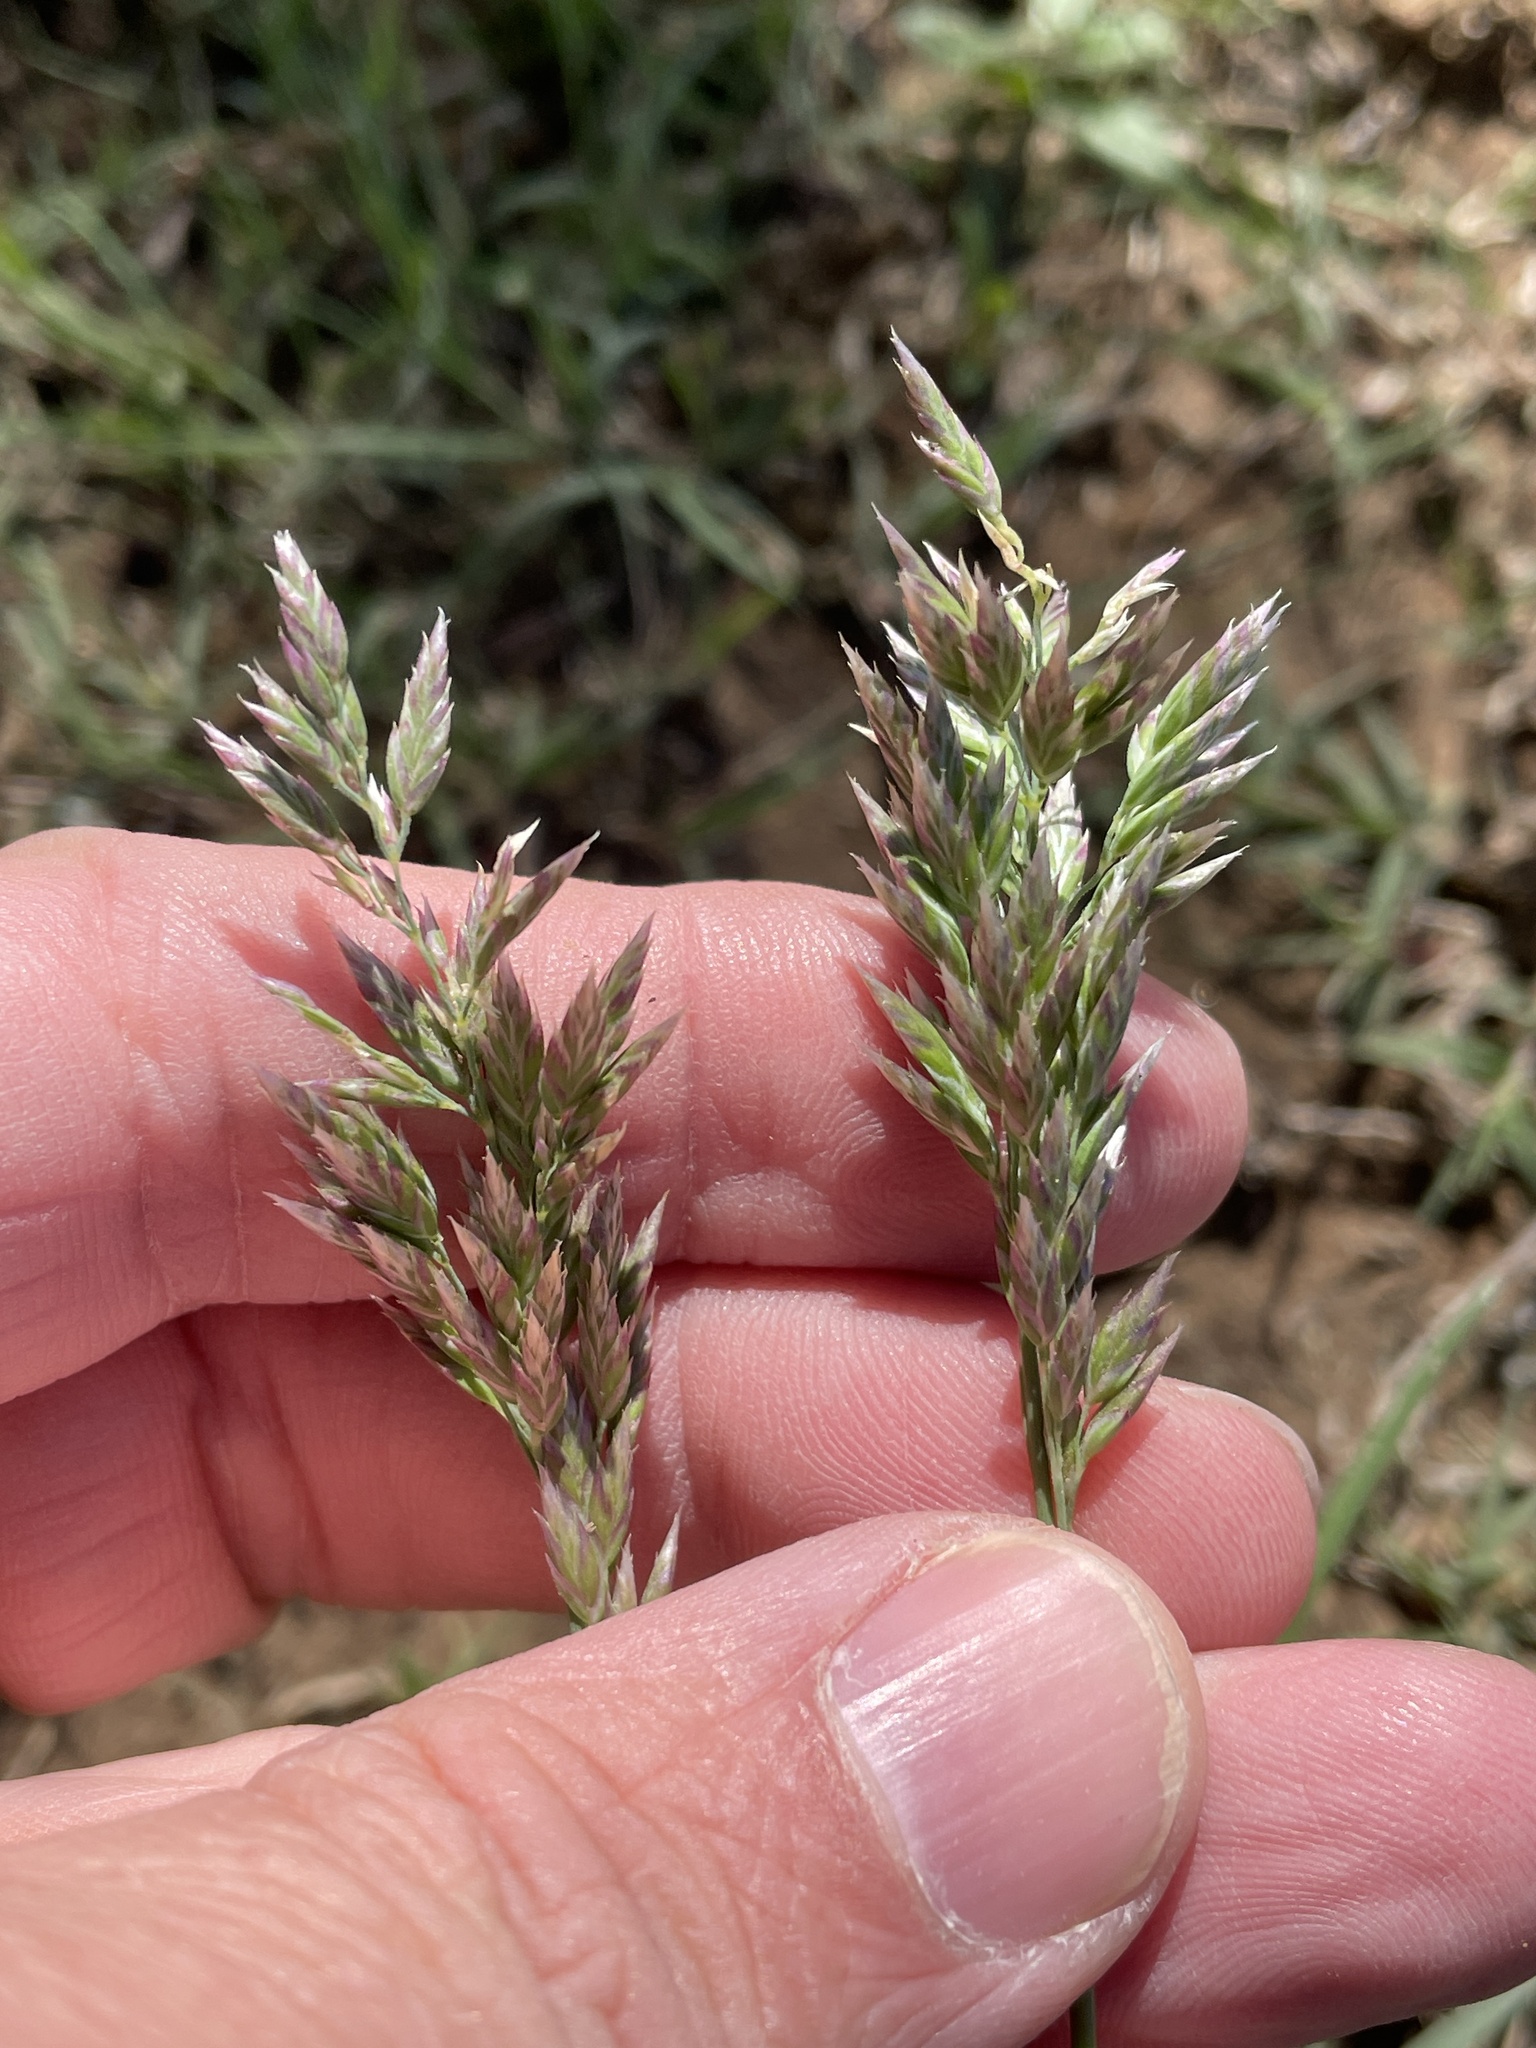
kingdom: Plantae
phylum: Tracheophyta
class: Liliopsida
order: Poales
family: Poaceae
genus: Poa
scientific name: Poa arachnifera
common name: Texas bluegrass
